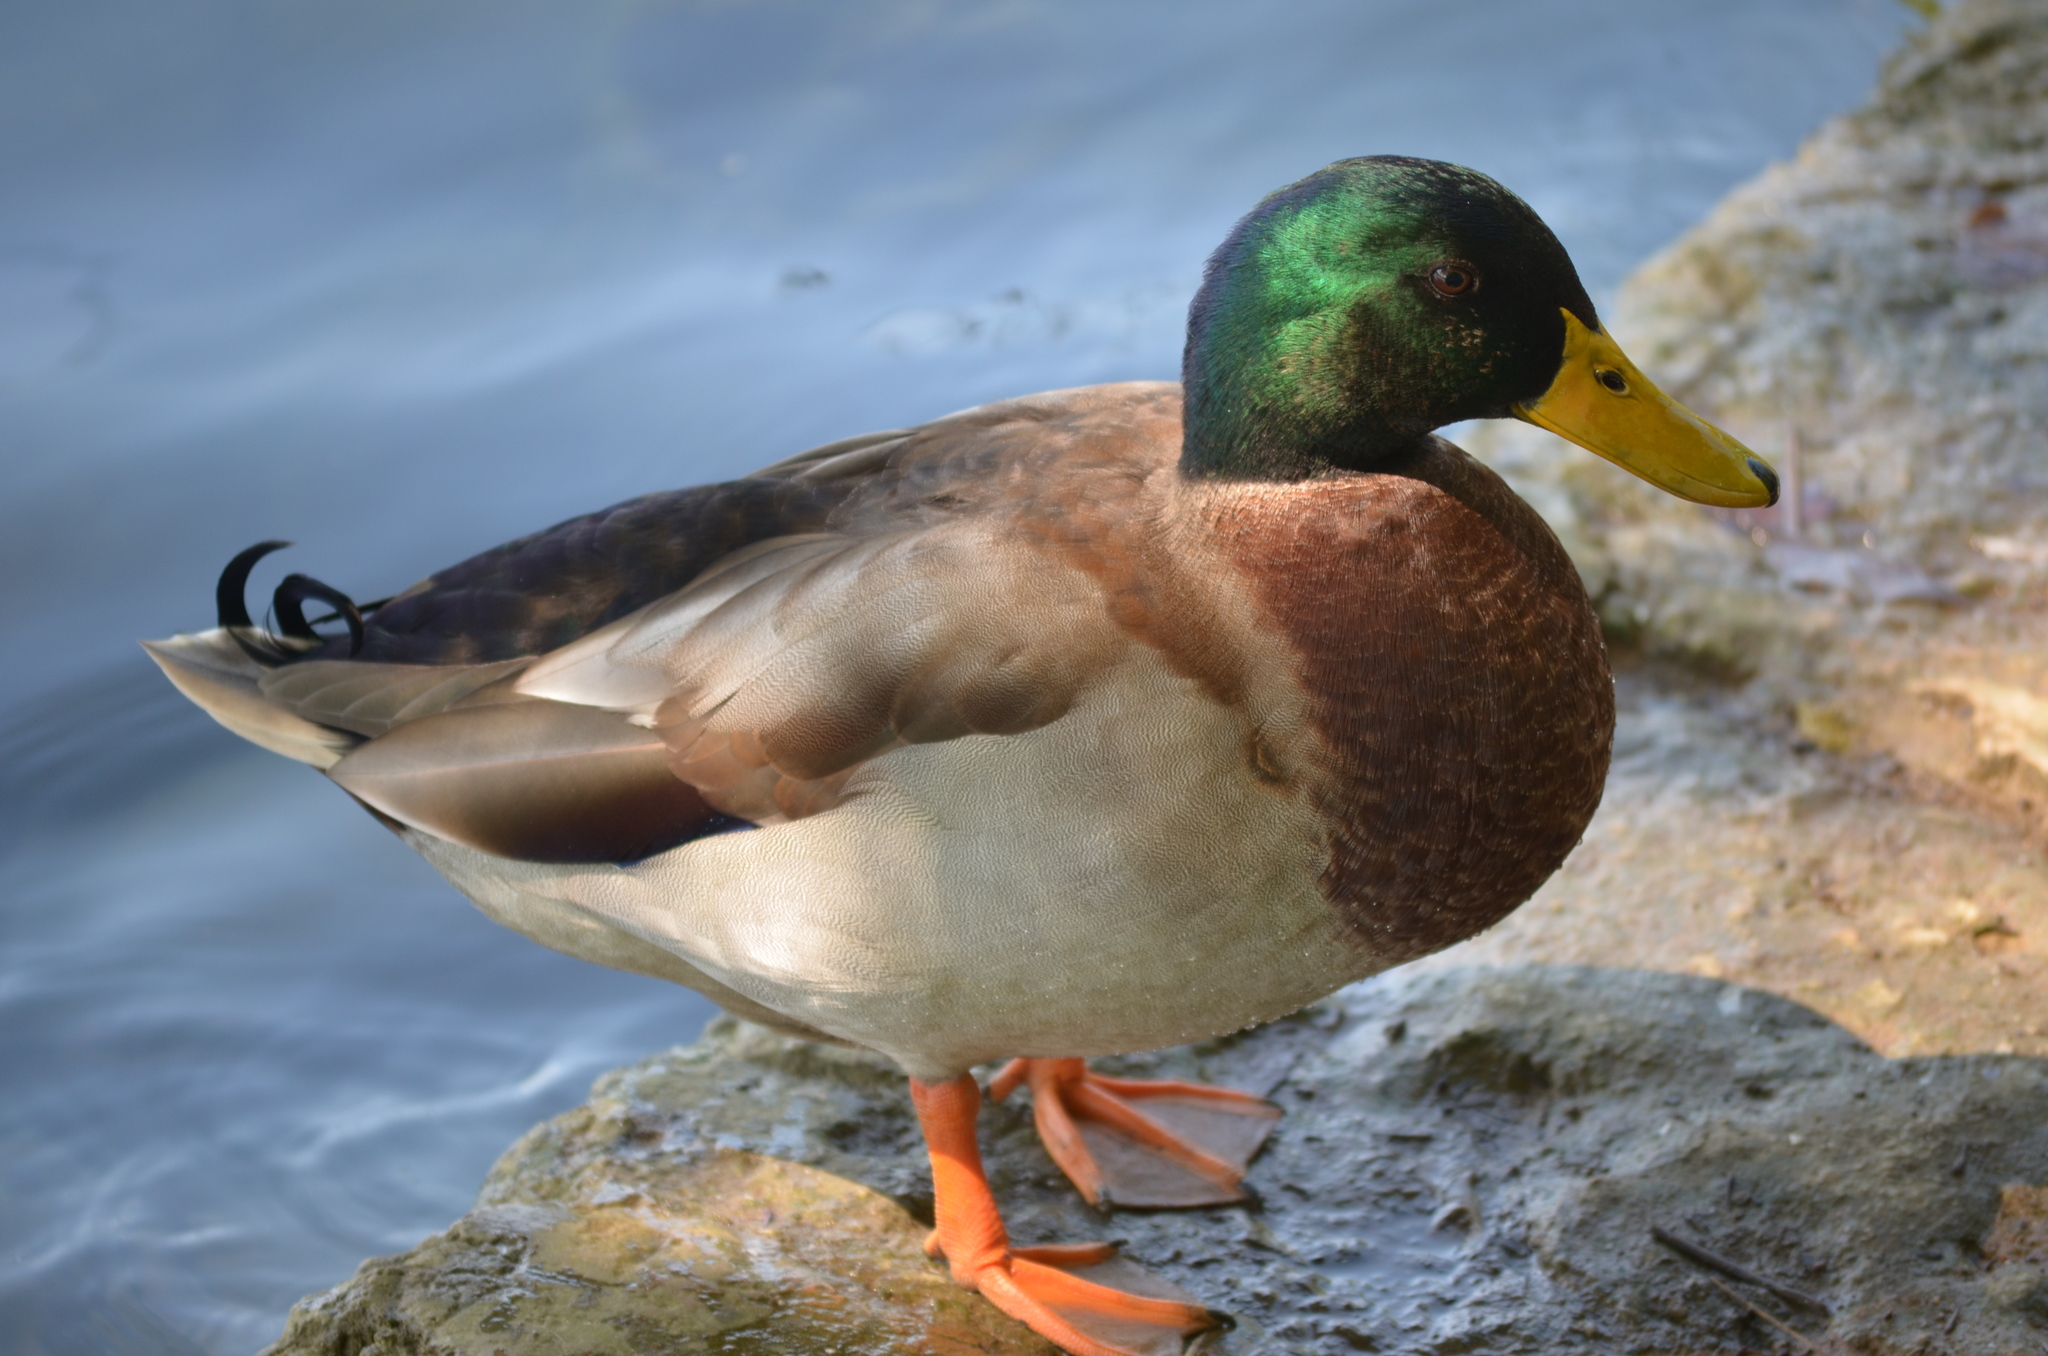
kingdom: Animalia
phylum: Chordata
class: Aves
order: Anseriformes
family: Anatidae
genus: Anas
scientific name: Anas platyrhynchos
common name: Mallard
